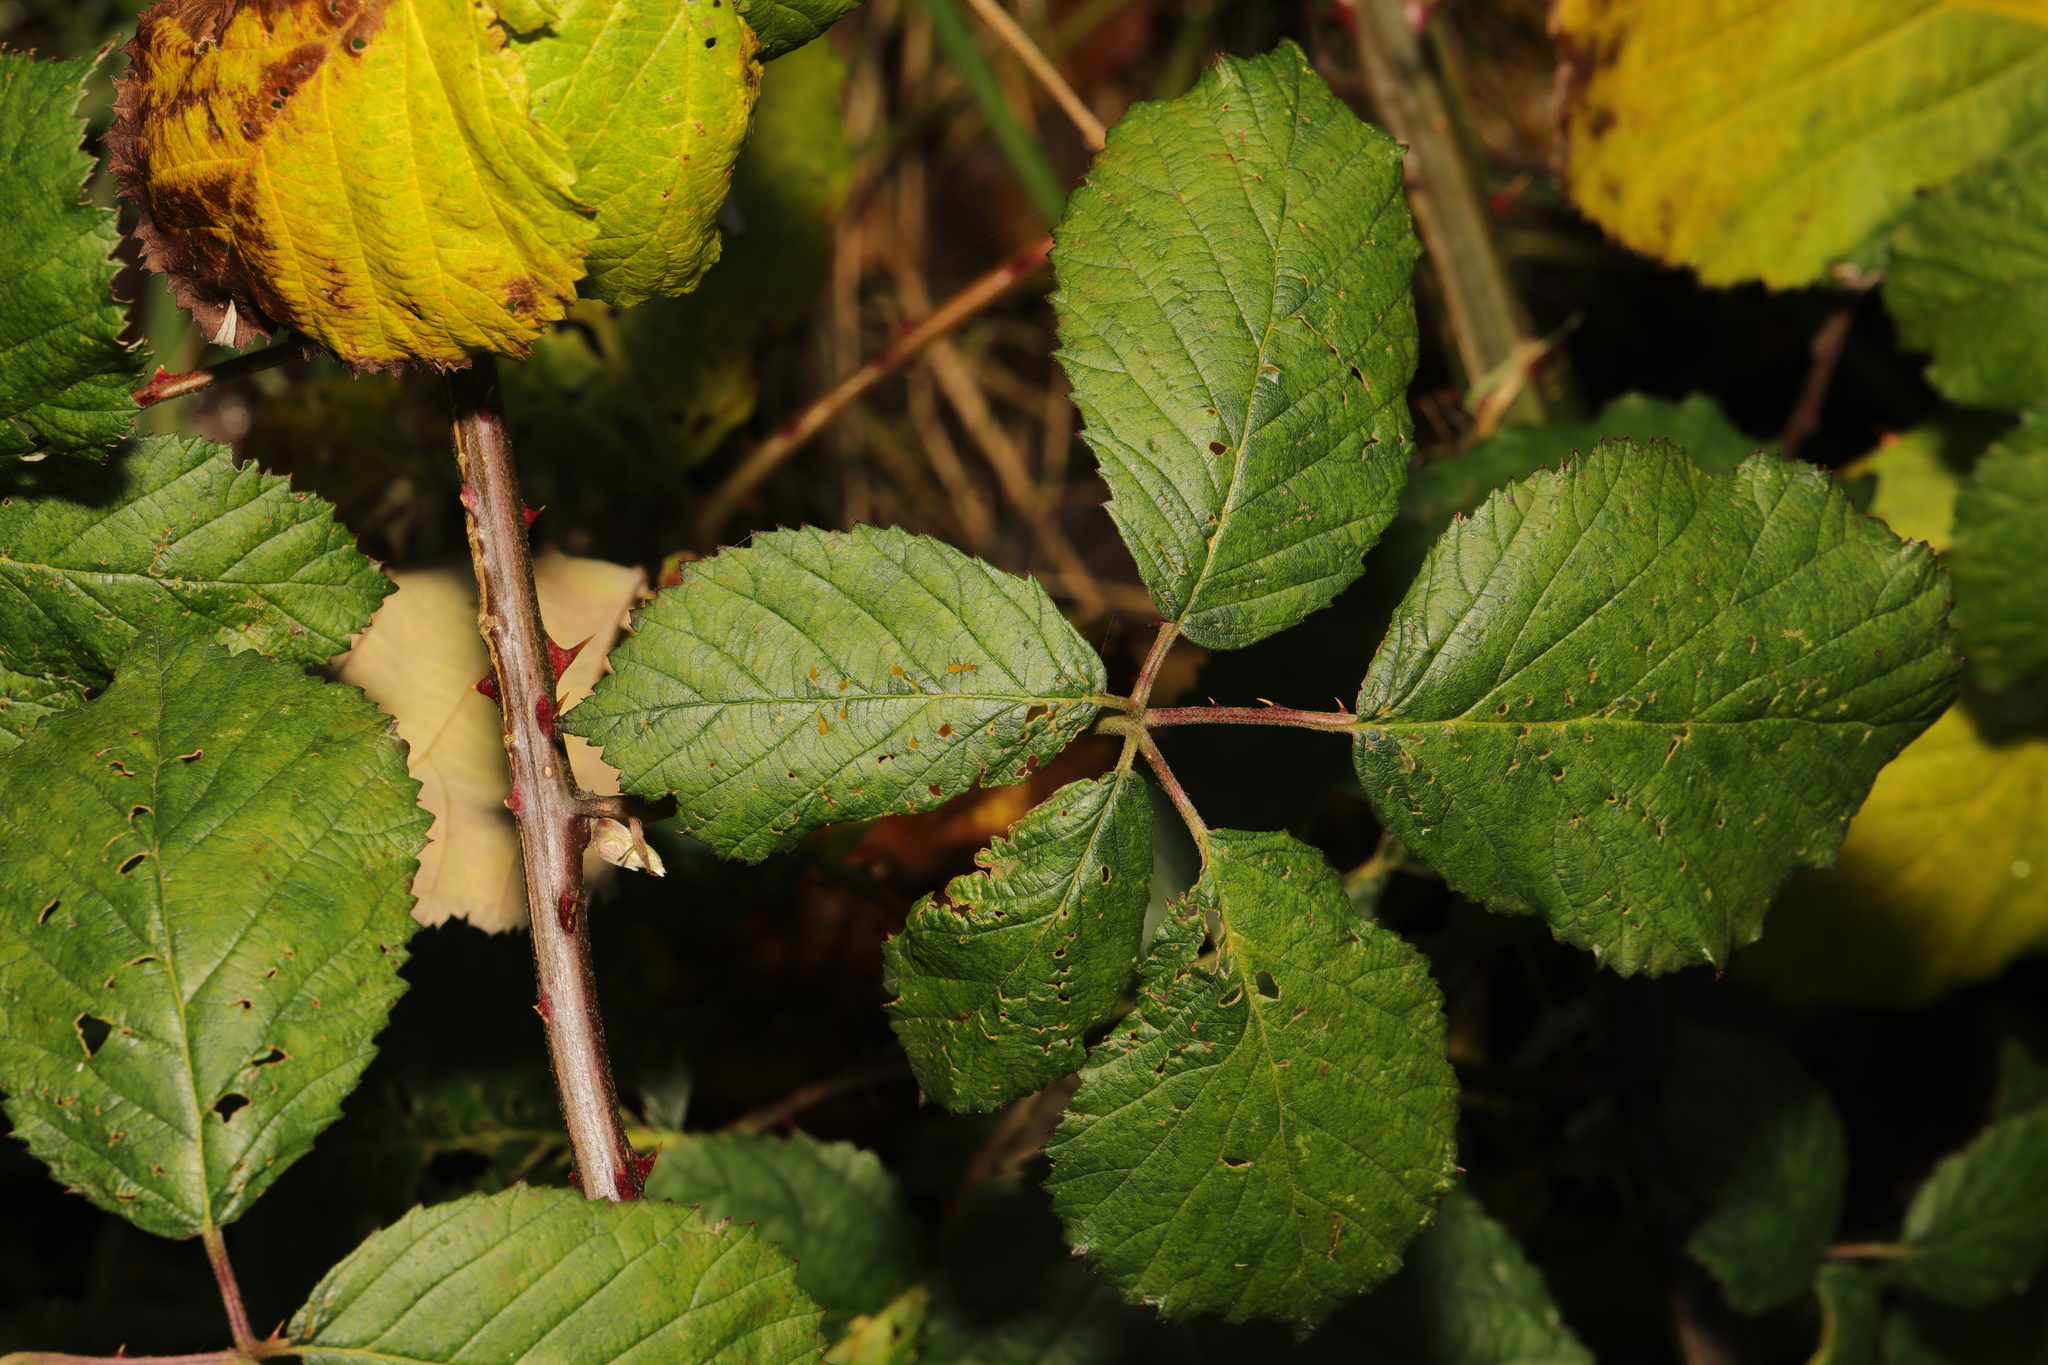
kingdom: Plantae
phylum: Tracheophyta
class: Magnoliopsida
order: Rosales
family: Rosaceae
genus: Rubus
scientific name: Rubus armeniacus
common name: Himalayan blackberry
